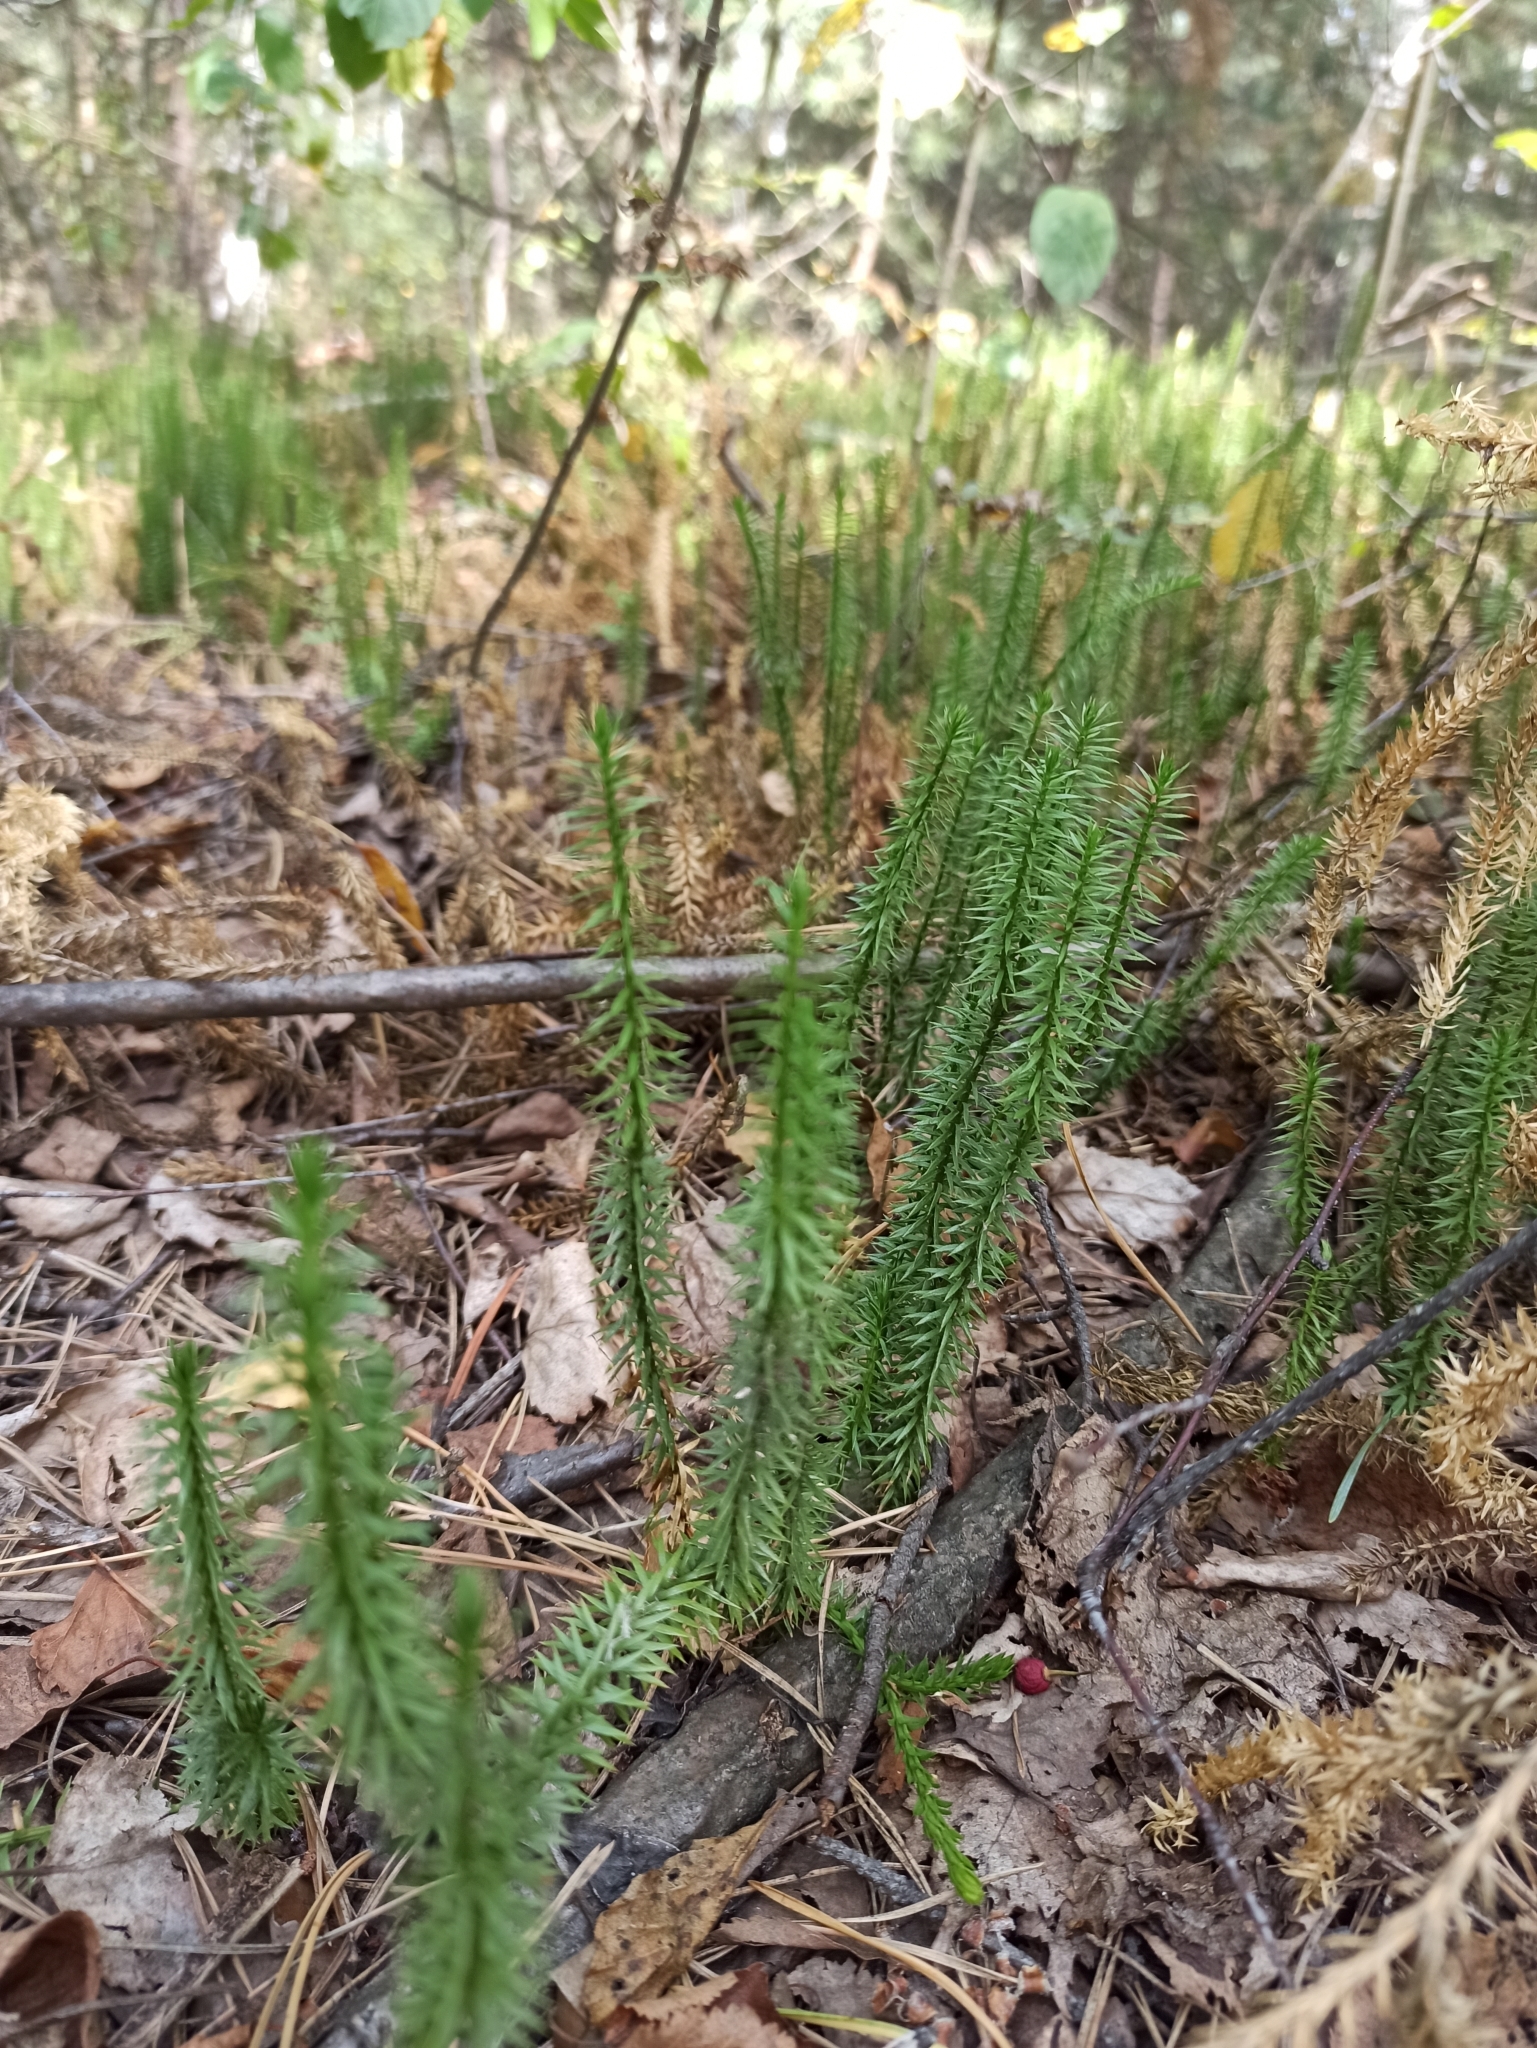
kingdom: Plantae
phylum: Tracheophyta
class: Lycopodiopsida
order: Lycopodiales
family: Lycopodiaceae
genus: Spinulum
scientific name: Spinulum annotinum
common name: Interrupted club-moss
